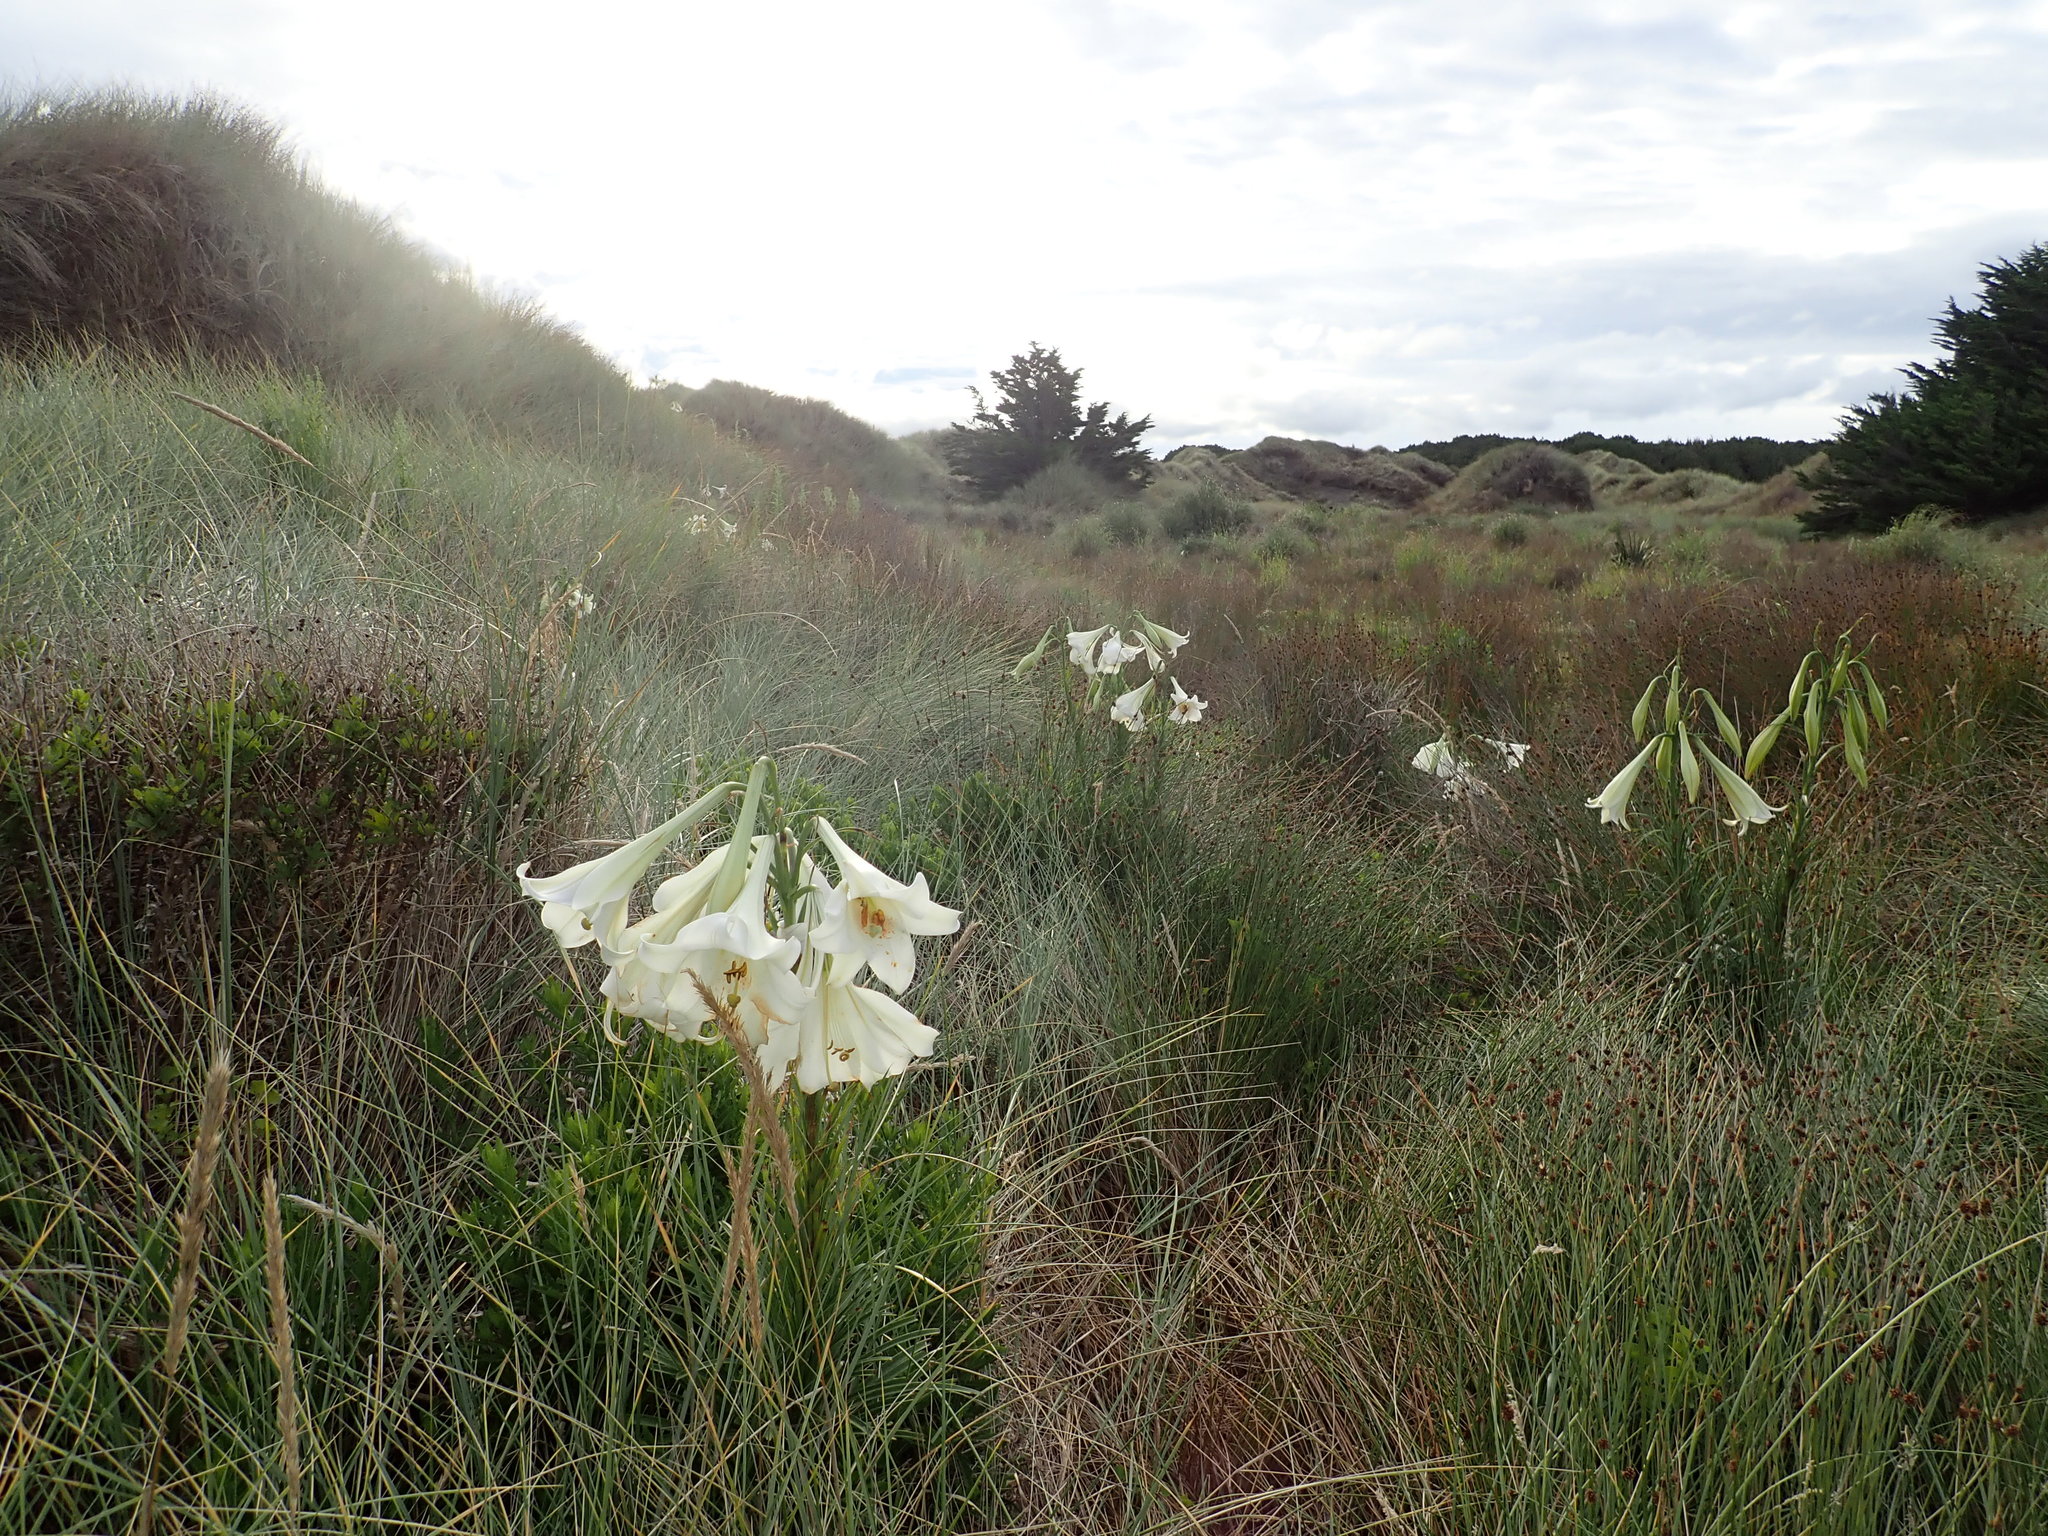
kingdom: Plantae
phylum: Tracheophyta
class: Liliopsida
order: Liliales
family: Liliaceae
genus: Lilium
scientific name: Lilium formosanum
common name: Formosa lily
